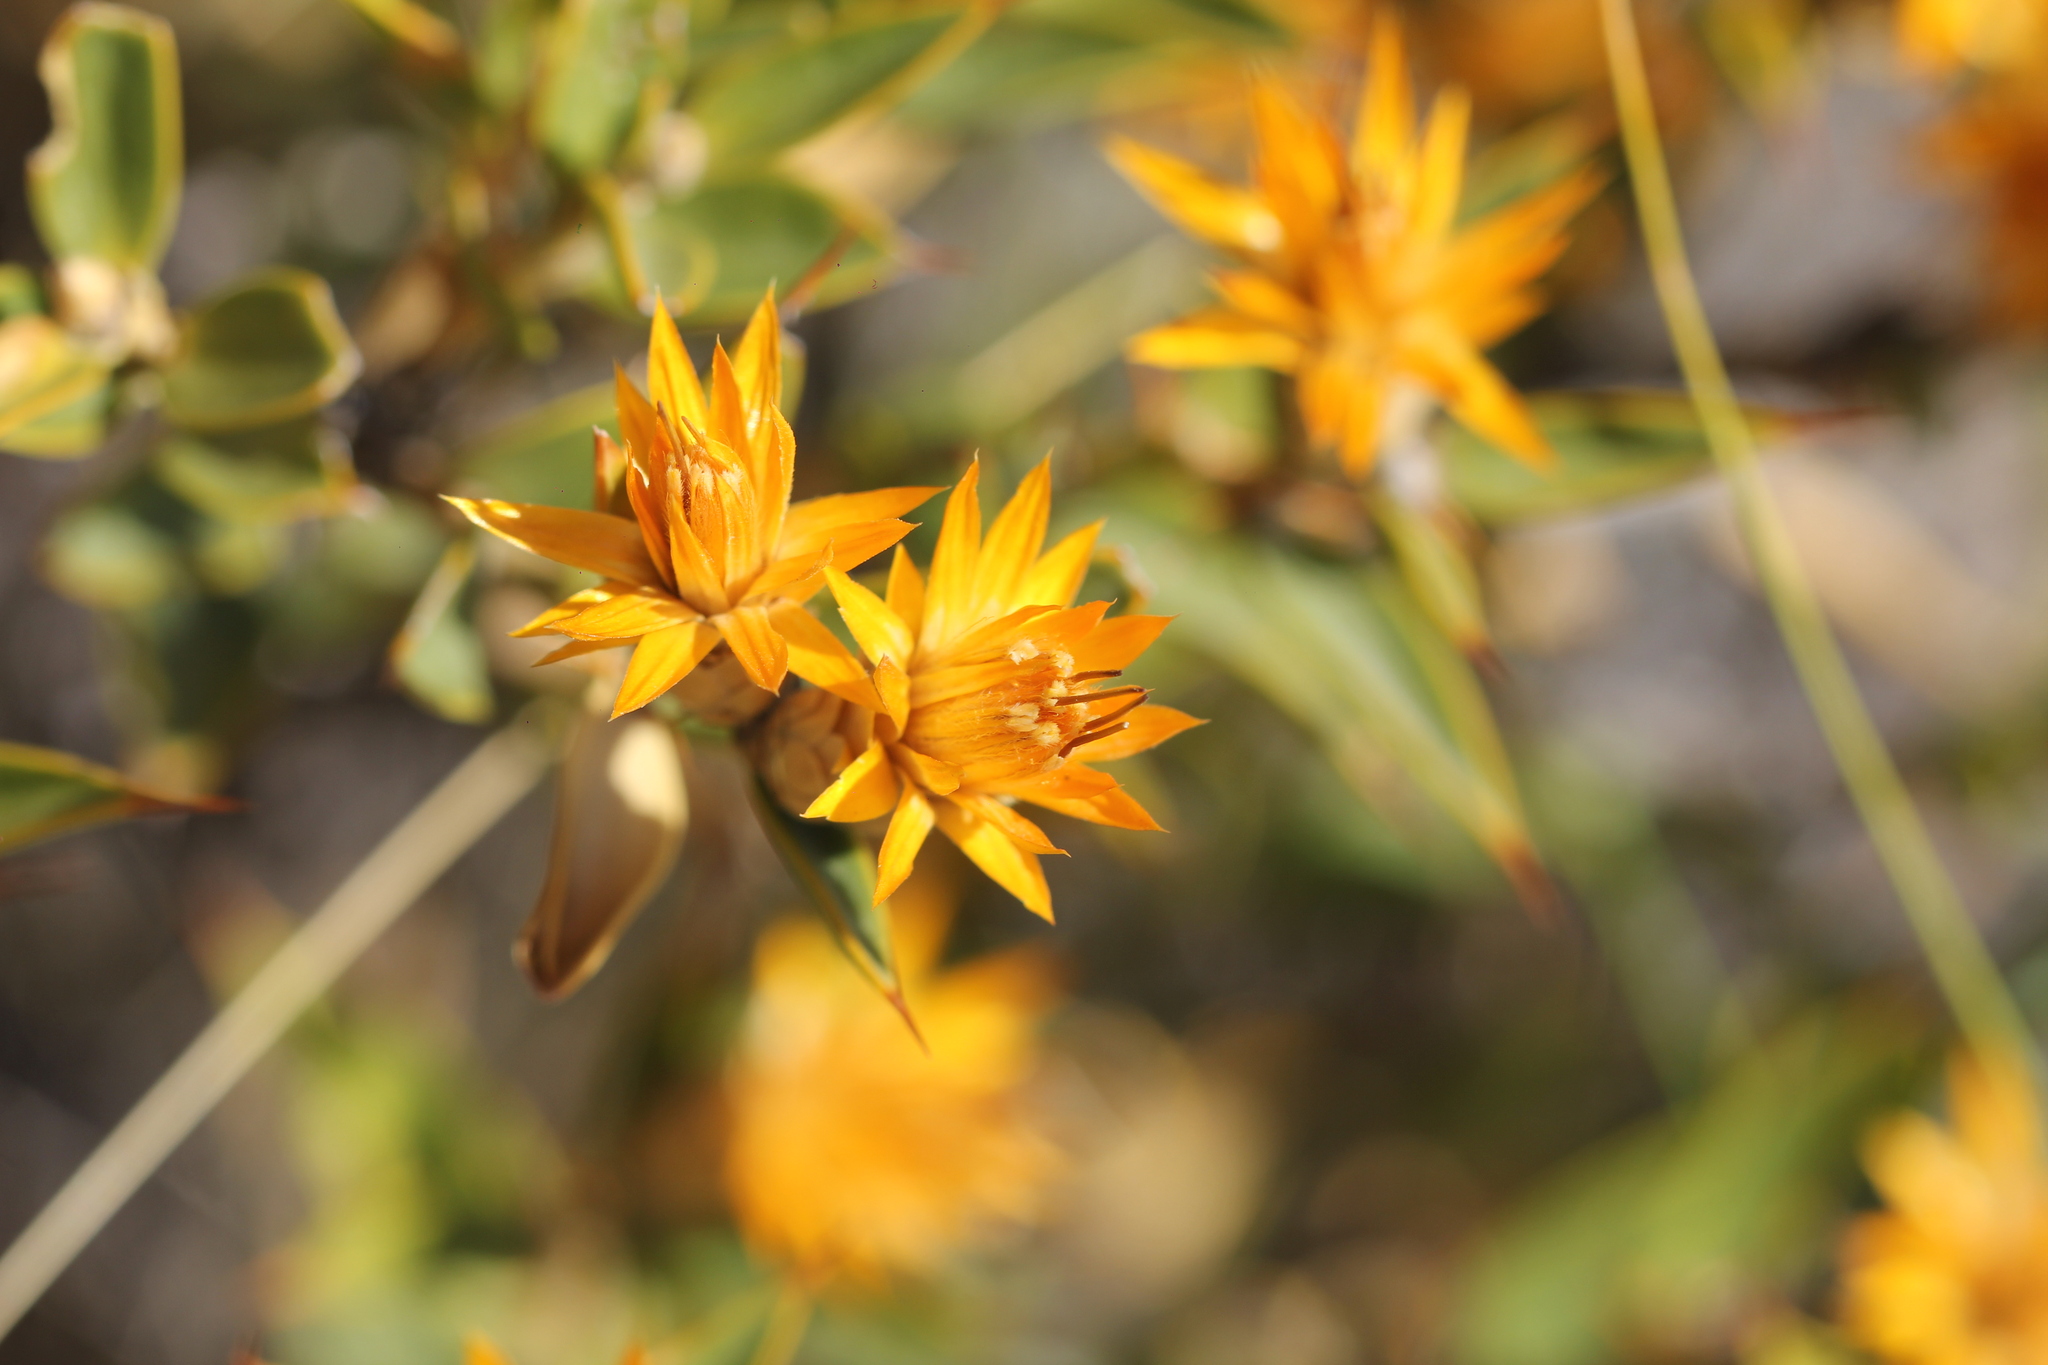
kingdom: Plantae
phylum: Tracheophyta
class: Magnoliopsida
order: Asterales
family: Asteraceae
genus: Chuquiraga
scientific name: Chuquiraga avellanedae
